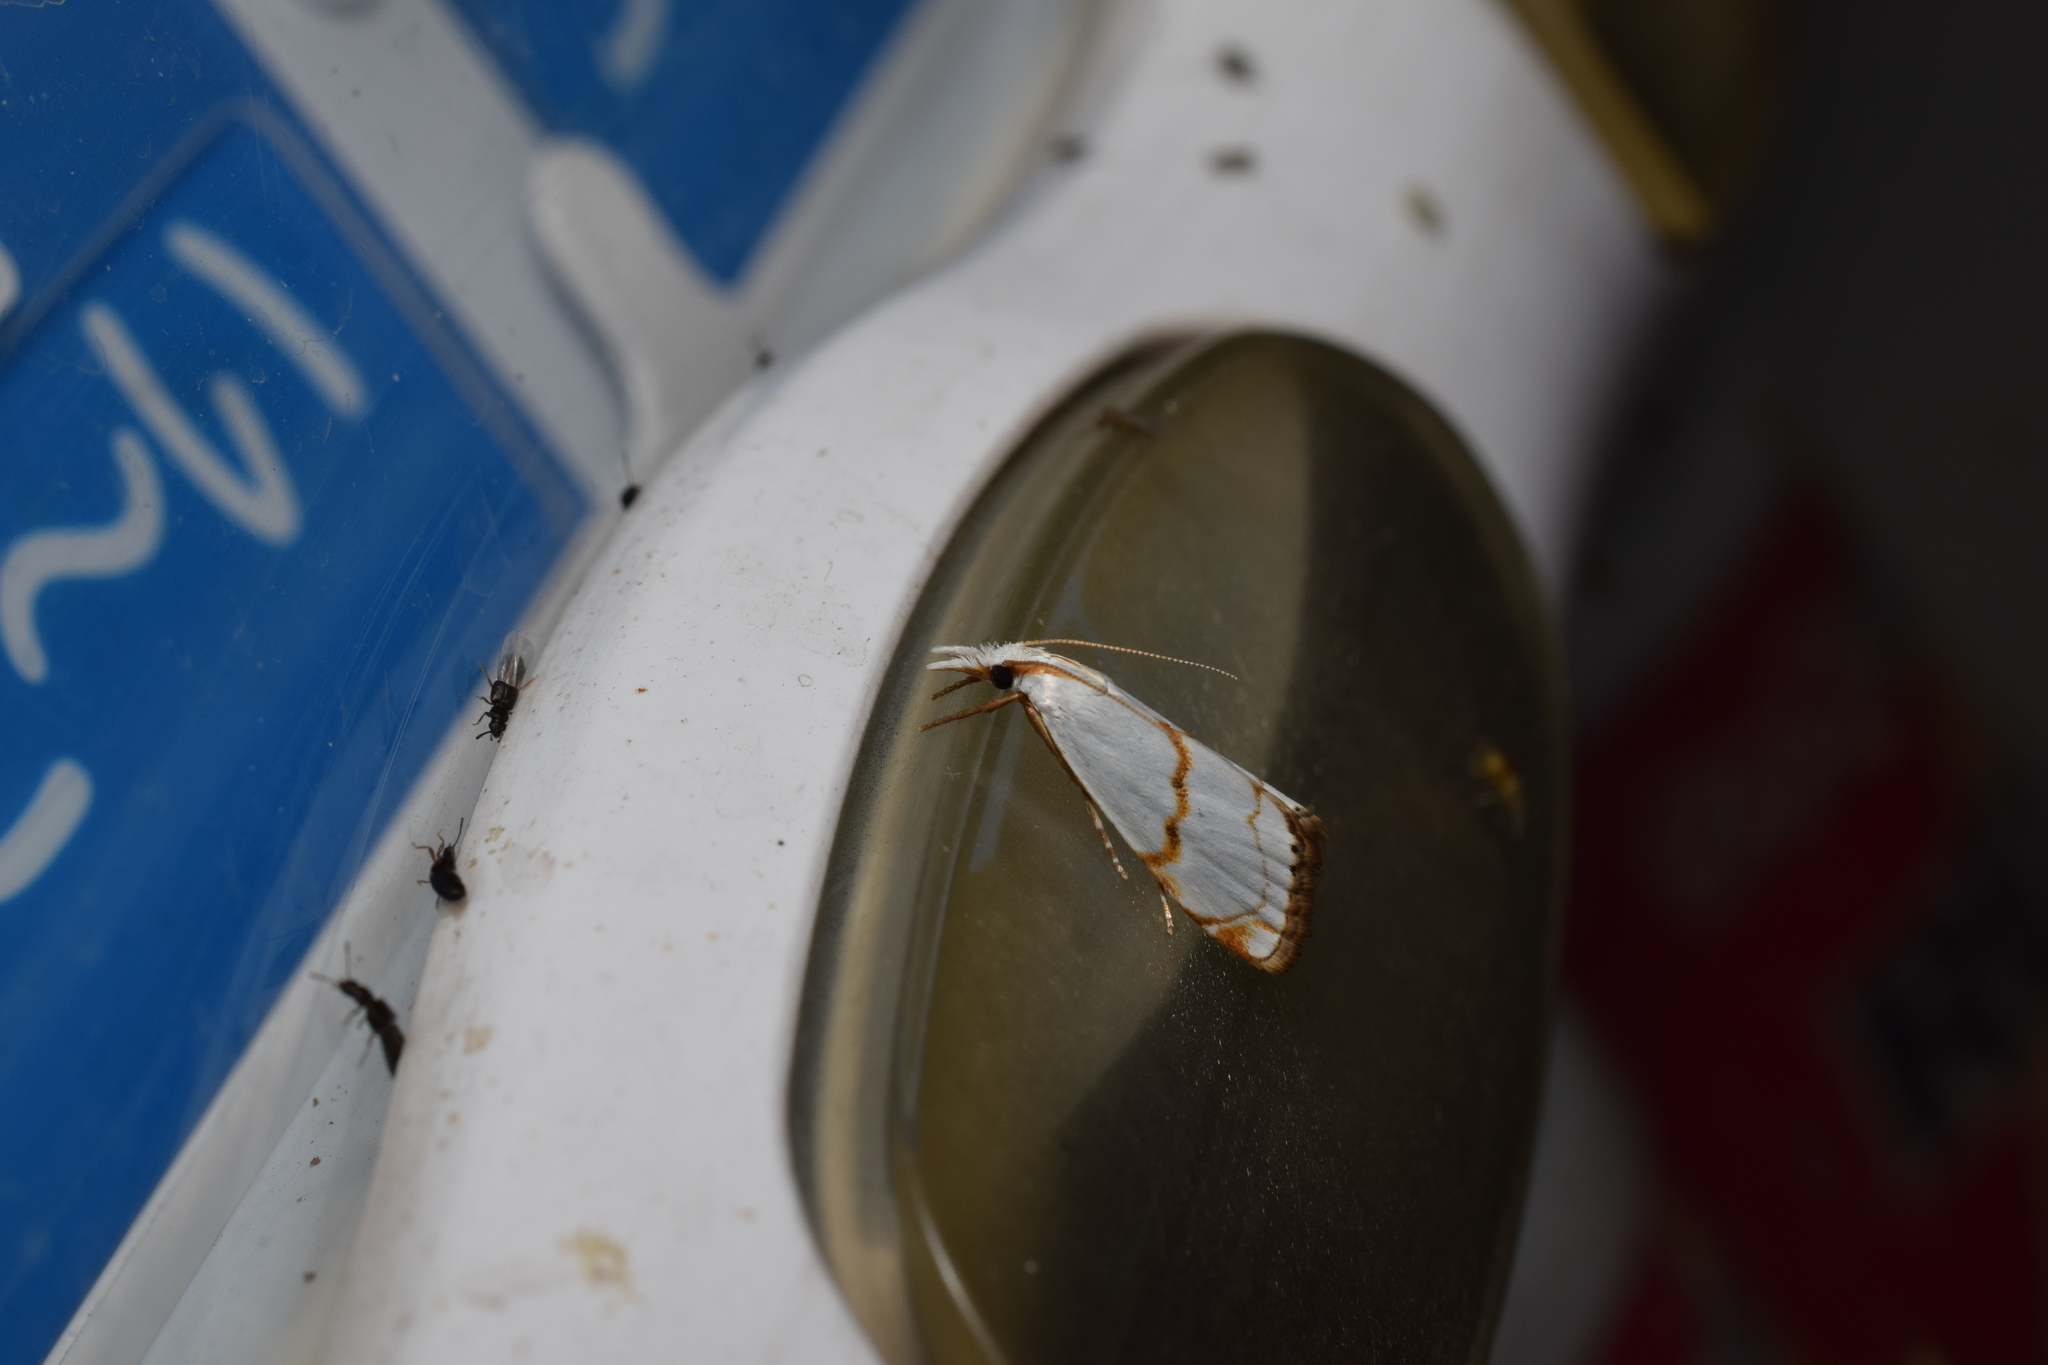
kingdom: Animalia
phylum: Arthropoda
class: Insecta
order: Lepidoptera
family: Crambidae
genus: Pseudargyria
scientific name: Pseudargyria interruptella
